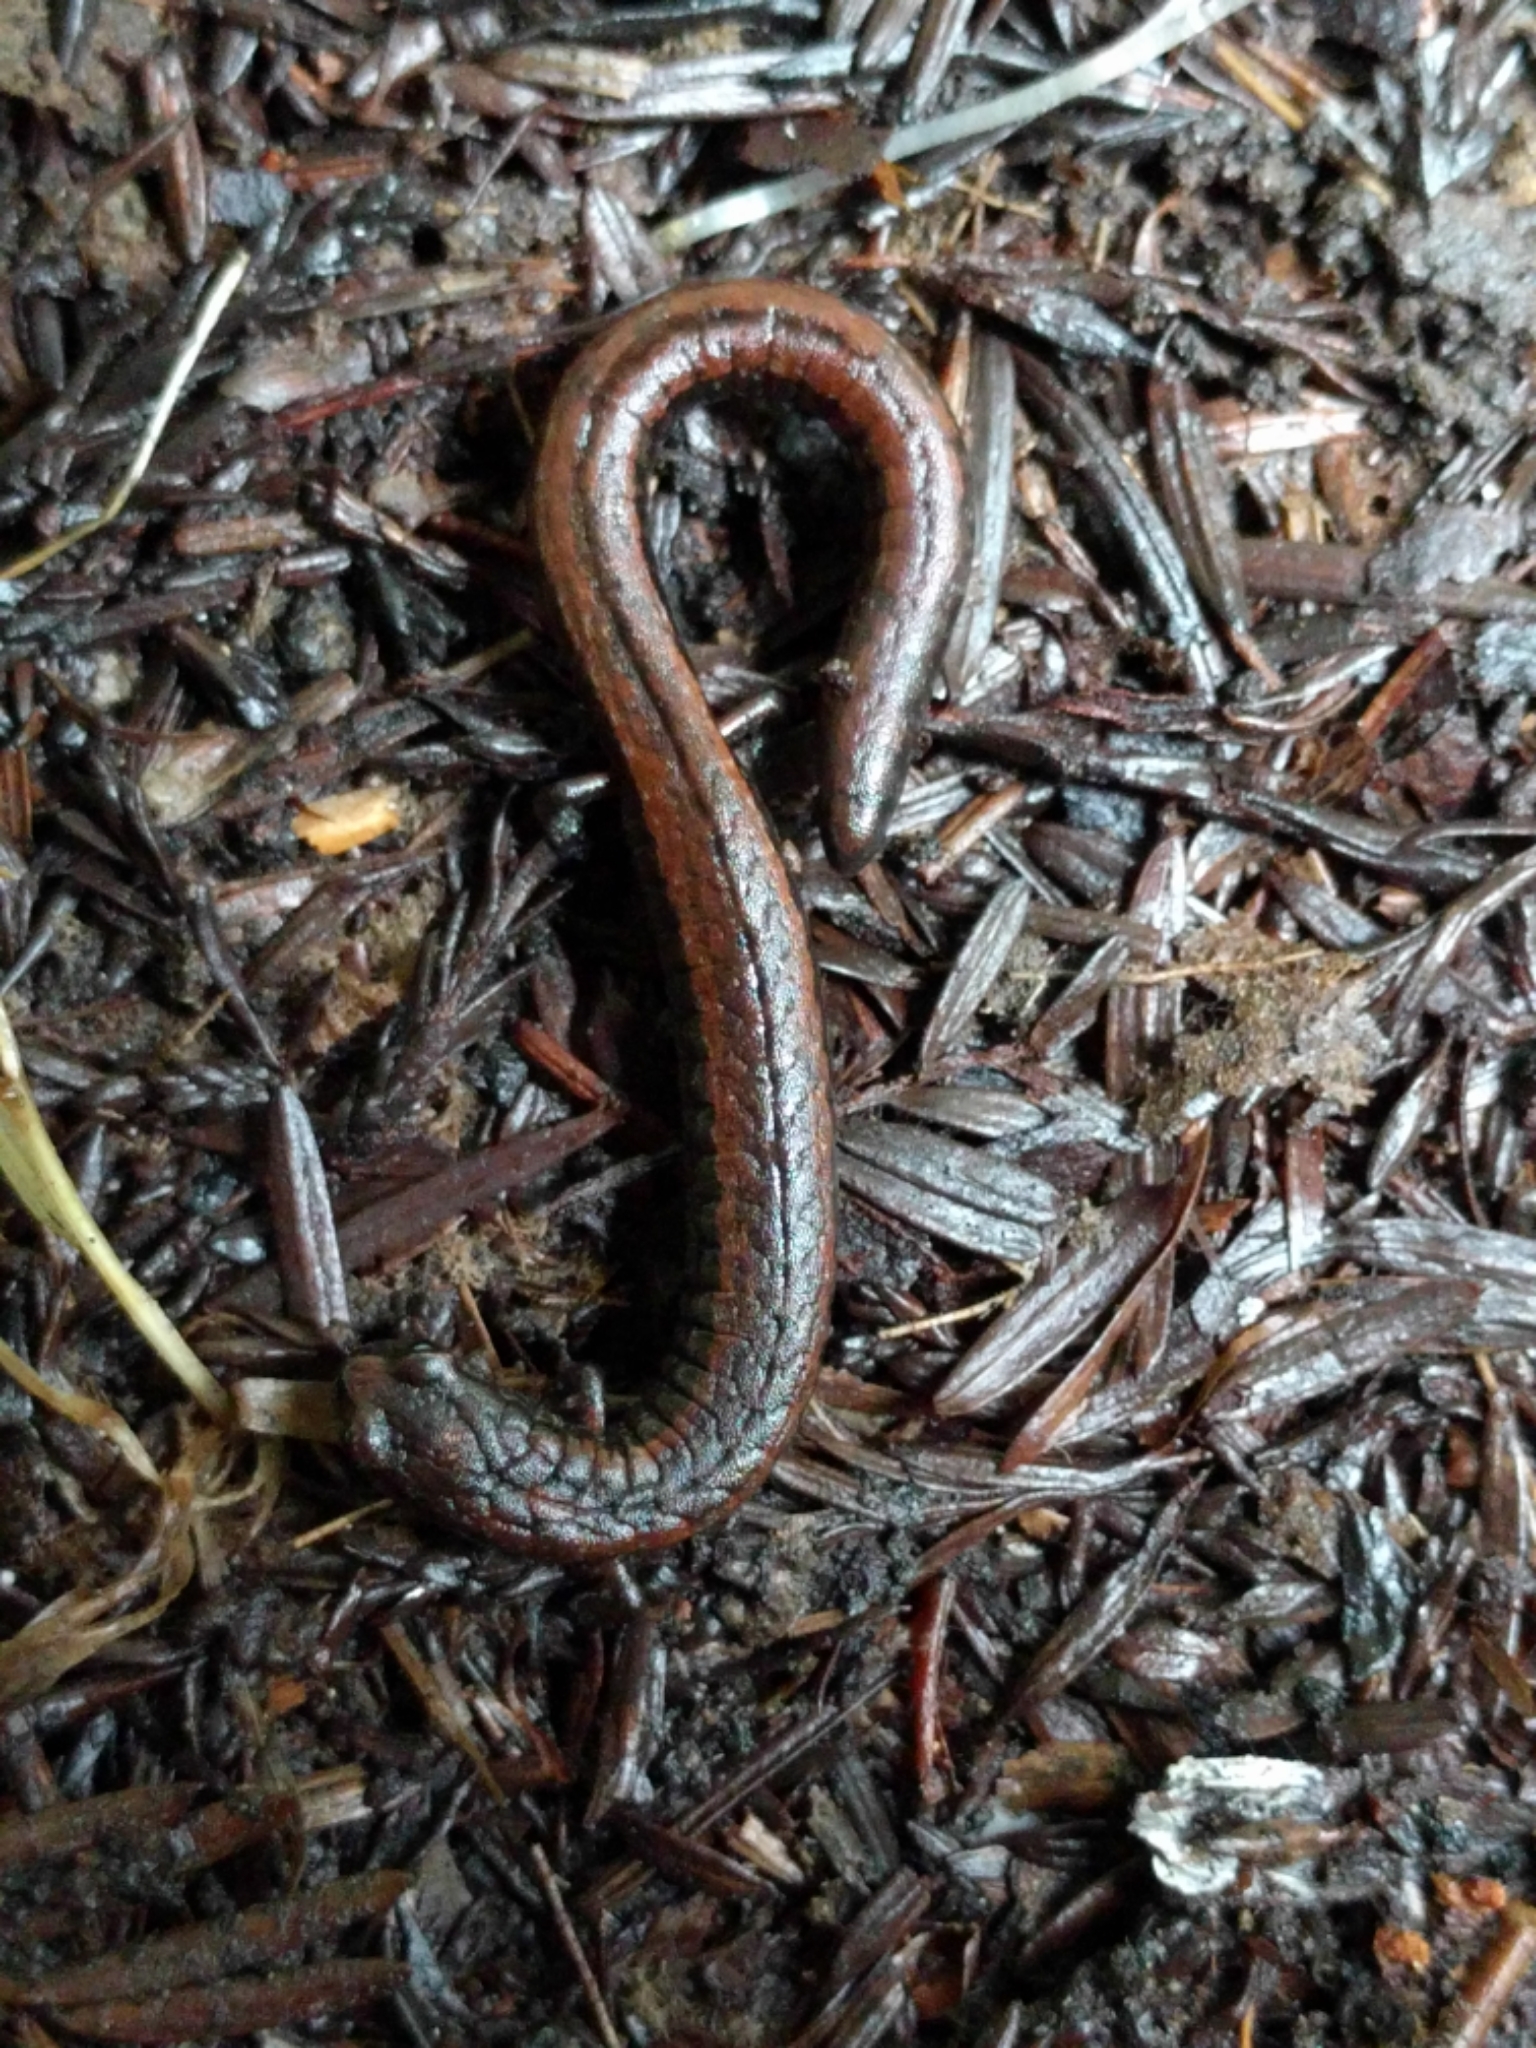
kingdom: Animalia
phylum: Chordata
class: Amphibia
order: Caudata
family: Plethodontidae
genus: Batrachoseps
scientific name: Batrachoseps attenuatus
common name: California slender salamander
